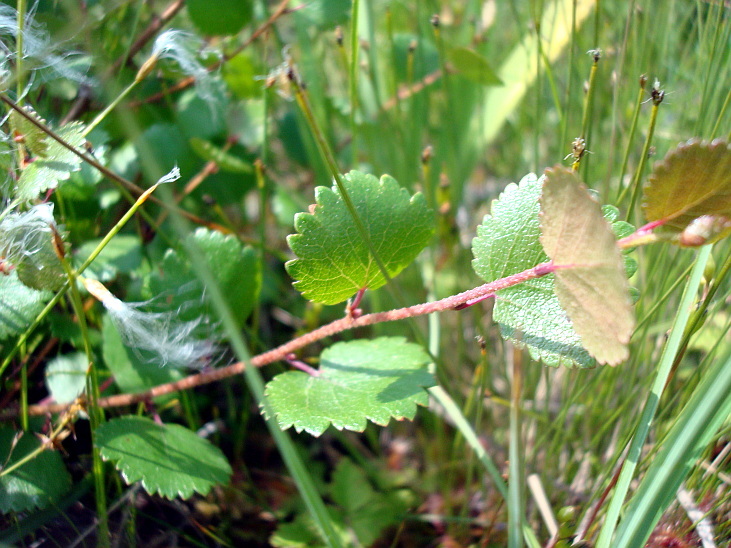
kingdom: Plantae
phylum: Tracheophyta
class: Magnoliopsida
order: Fagales
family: Betulaceae
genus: Betula
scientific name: Betula nana
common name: Arctic dwarf birch
